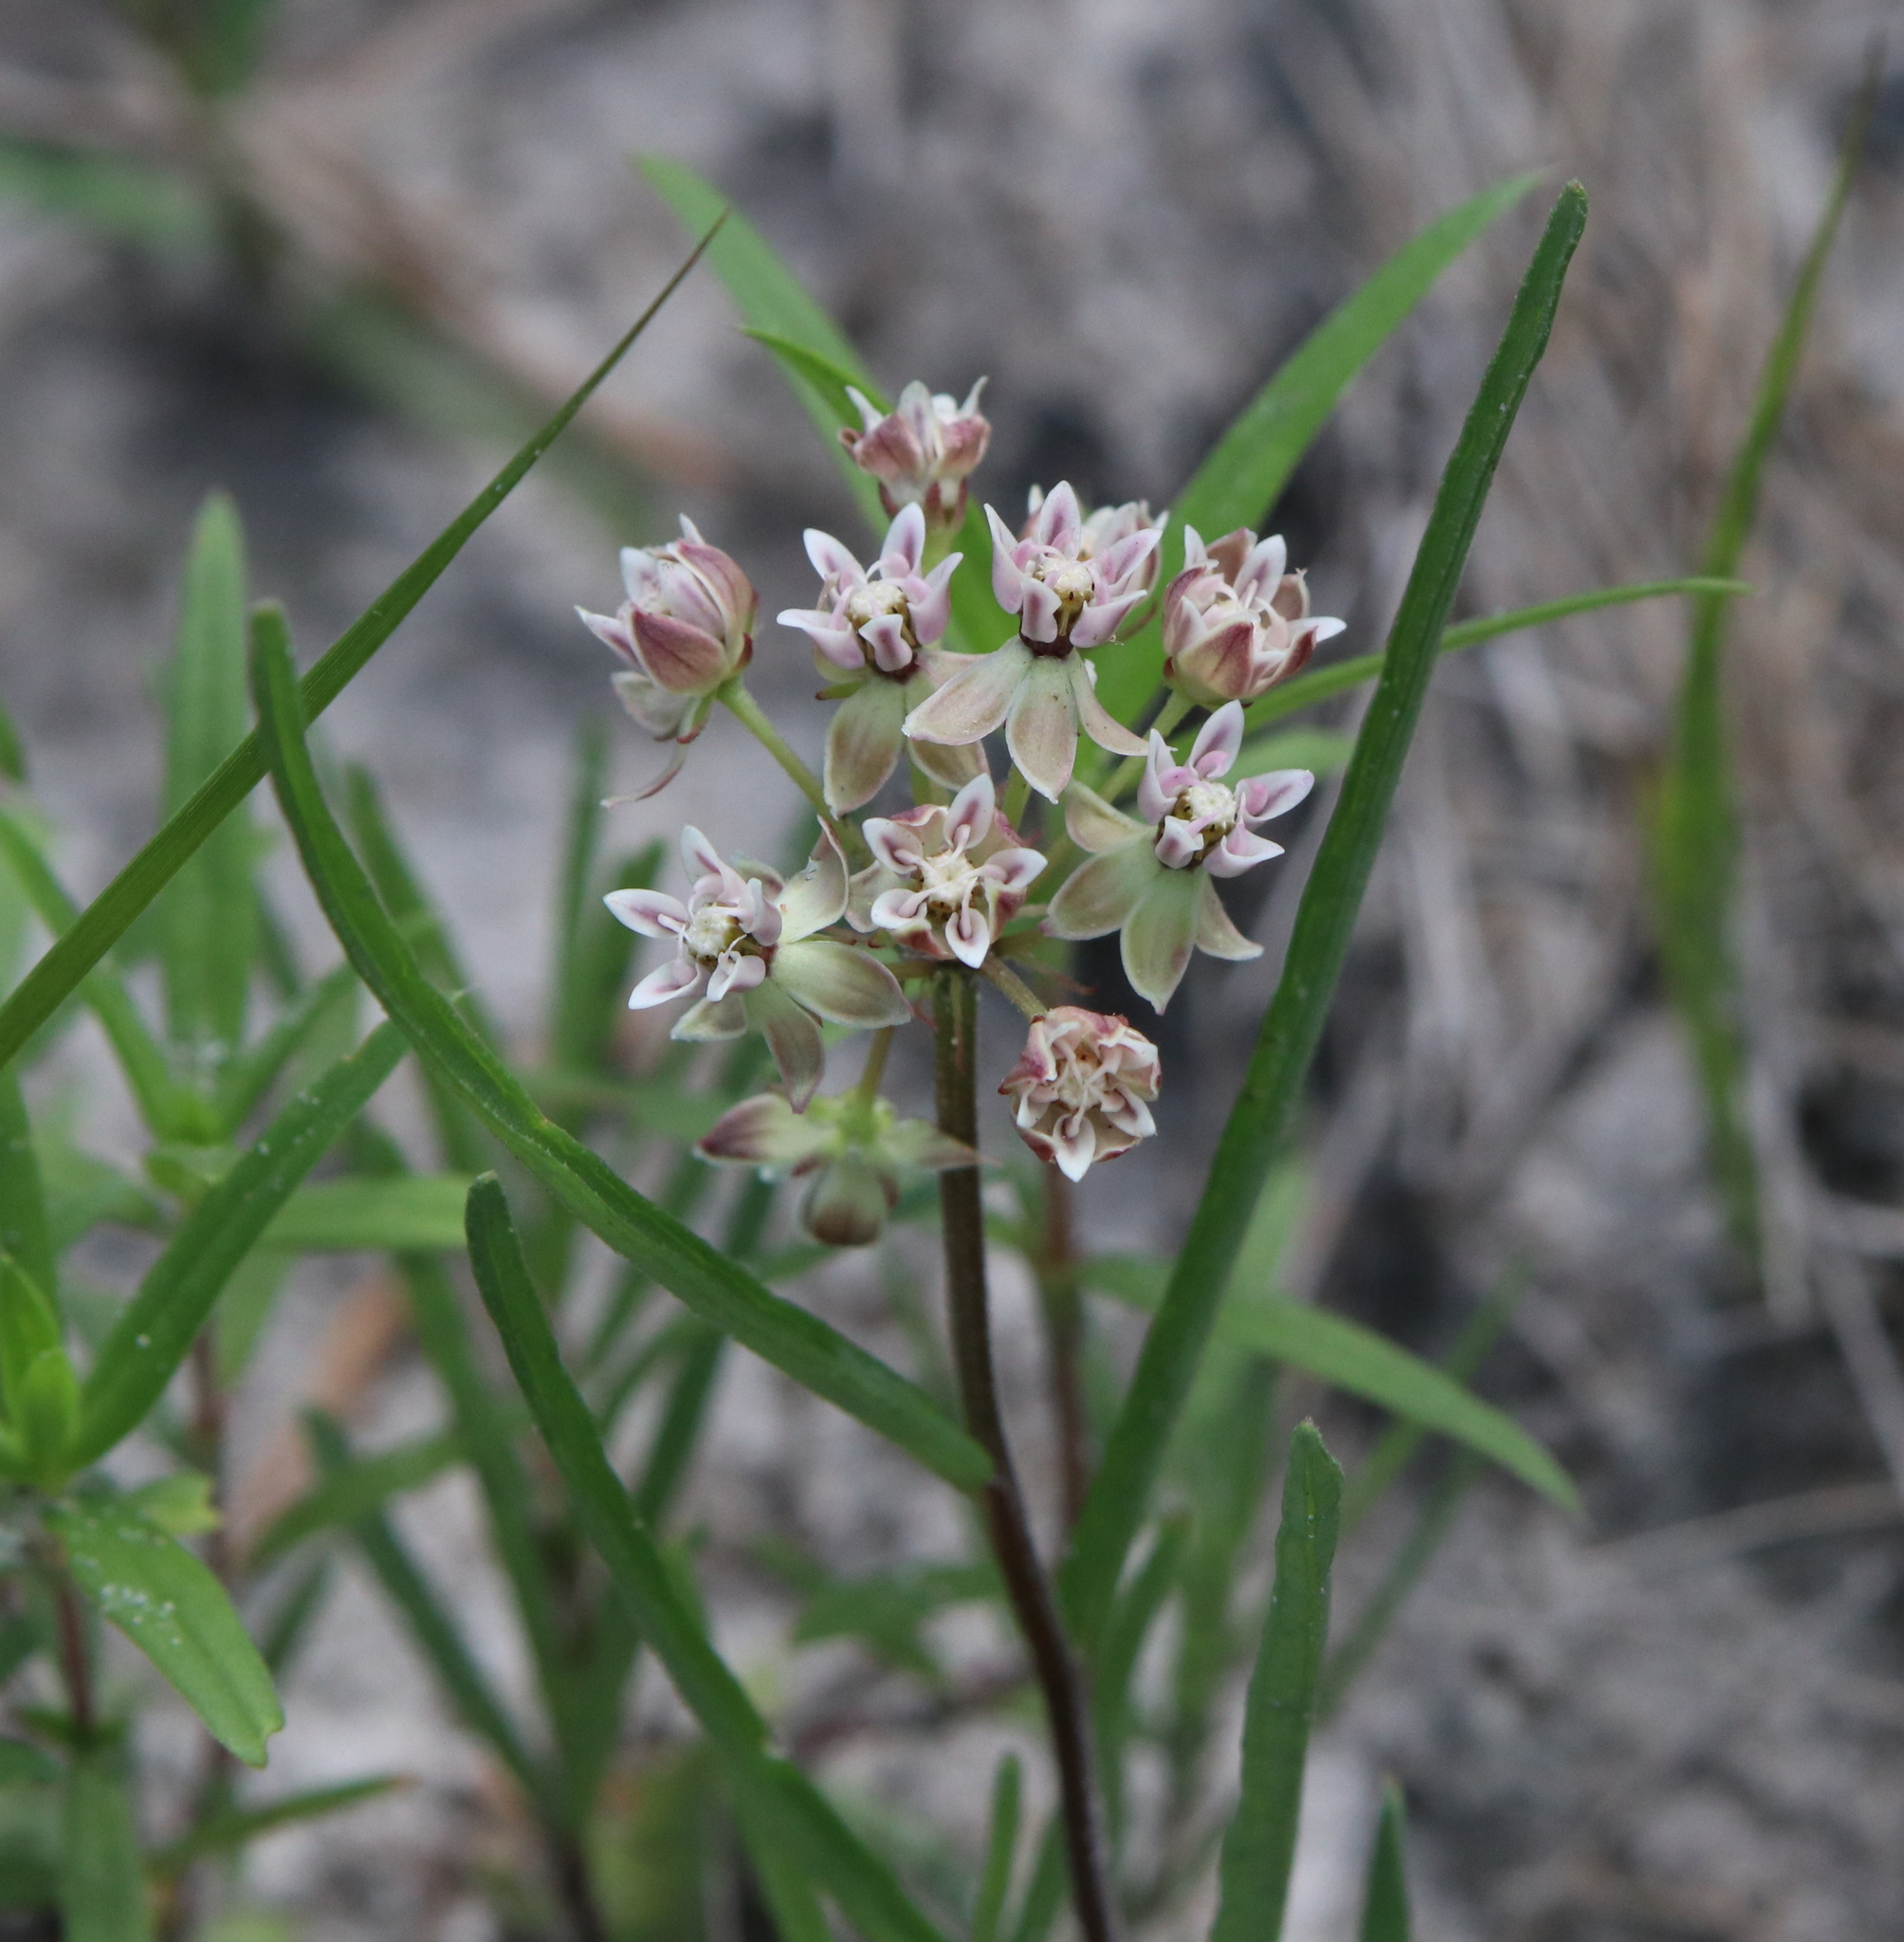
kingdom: Plantae
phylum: Tracheophyta
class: Magnoliopsida
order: Gentianales
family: Apocynaceae
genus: Asclepias
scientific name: Asclepias michauxii
